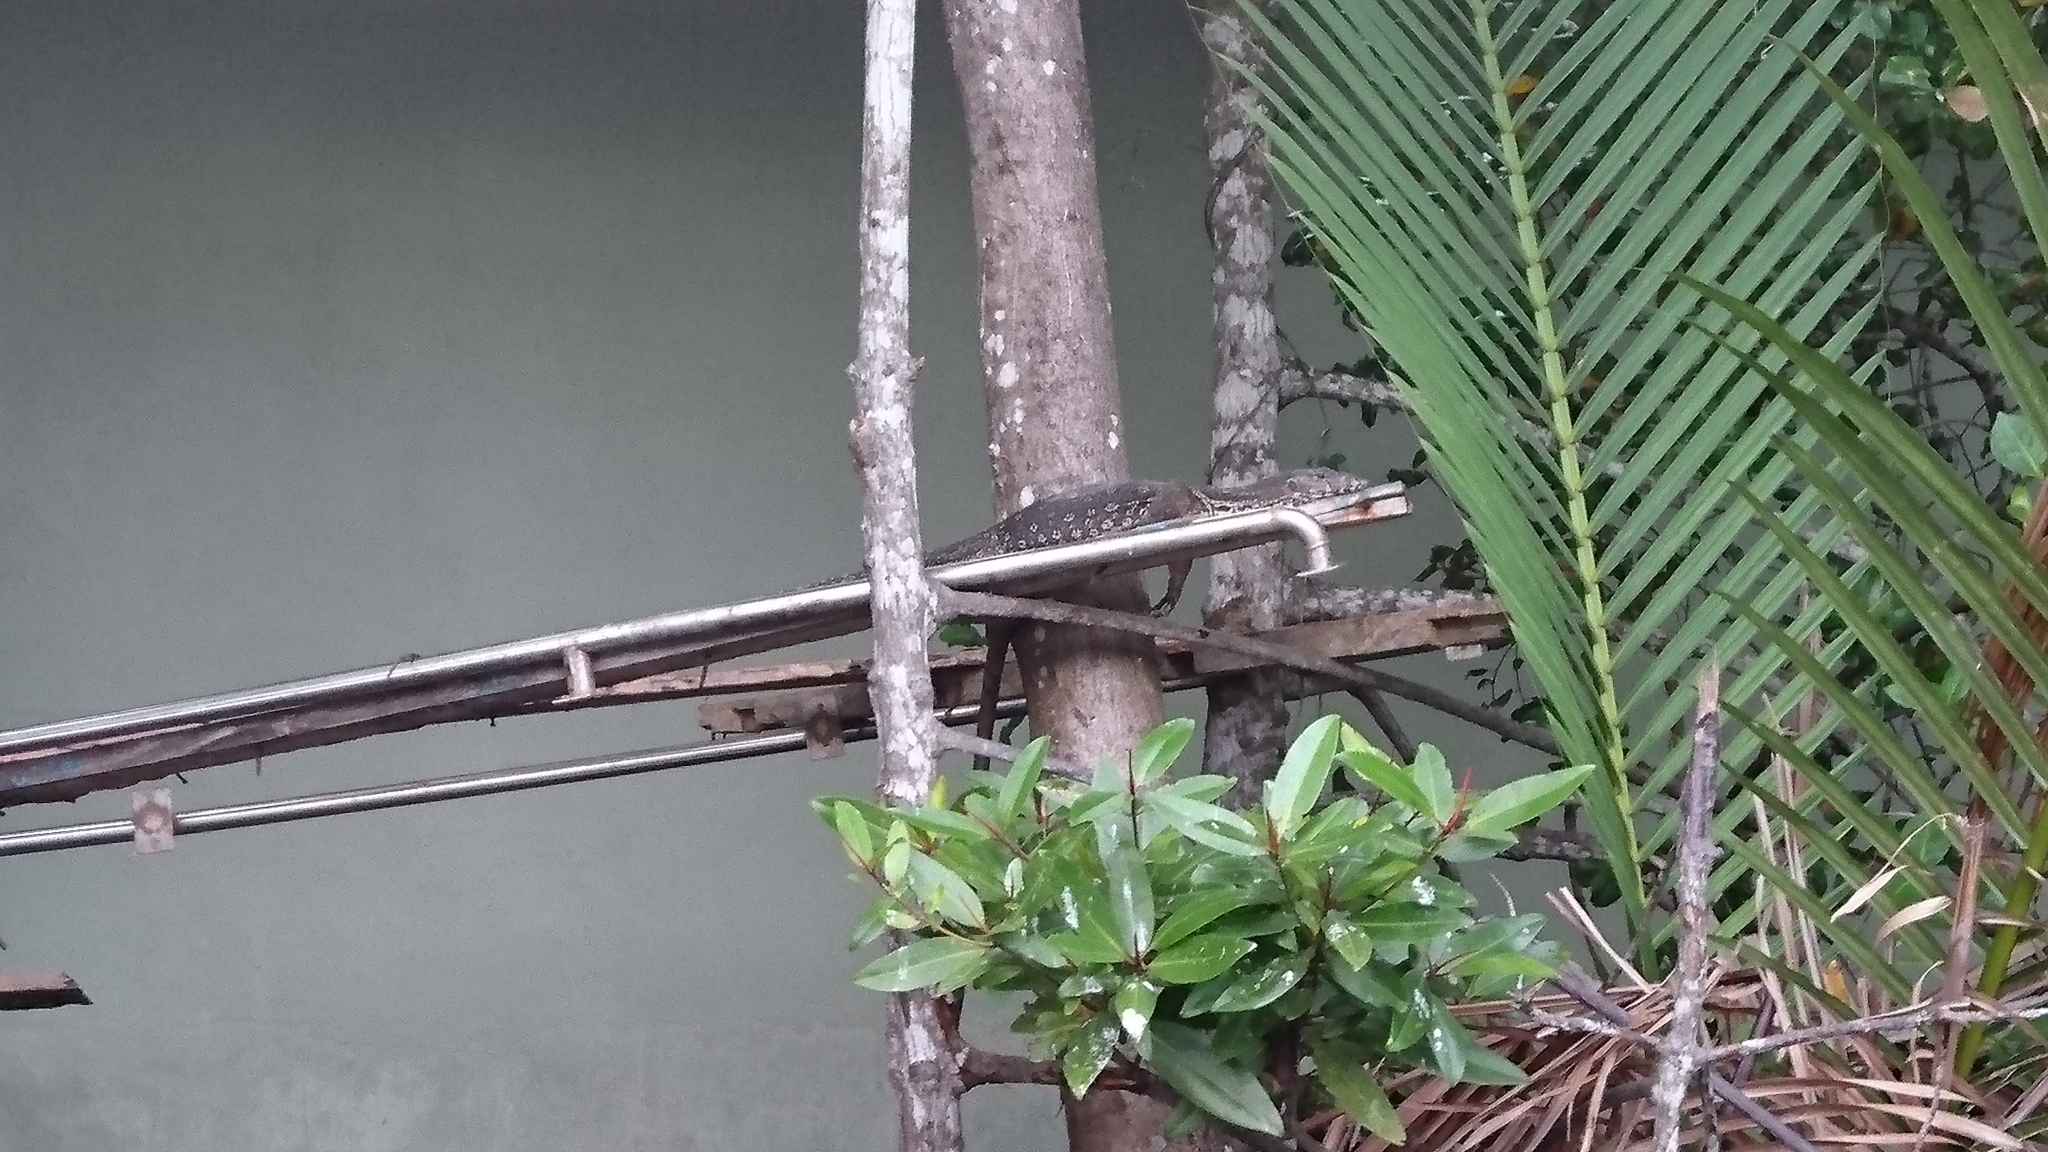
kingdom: Animalia
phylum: Chordata
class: Squamata
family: Varanidae
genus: Varanus
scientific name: Varanus salvator
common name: Common water monitor
